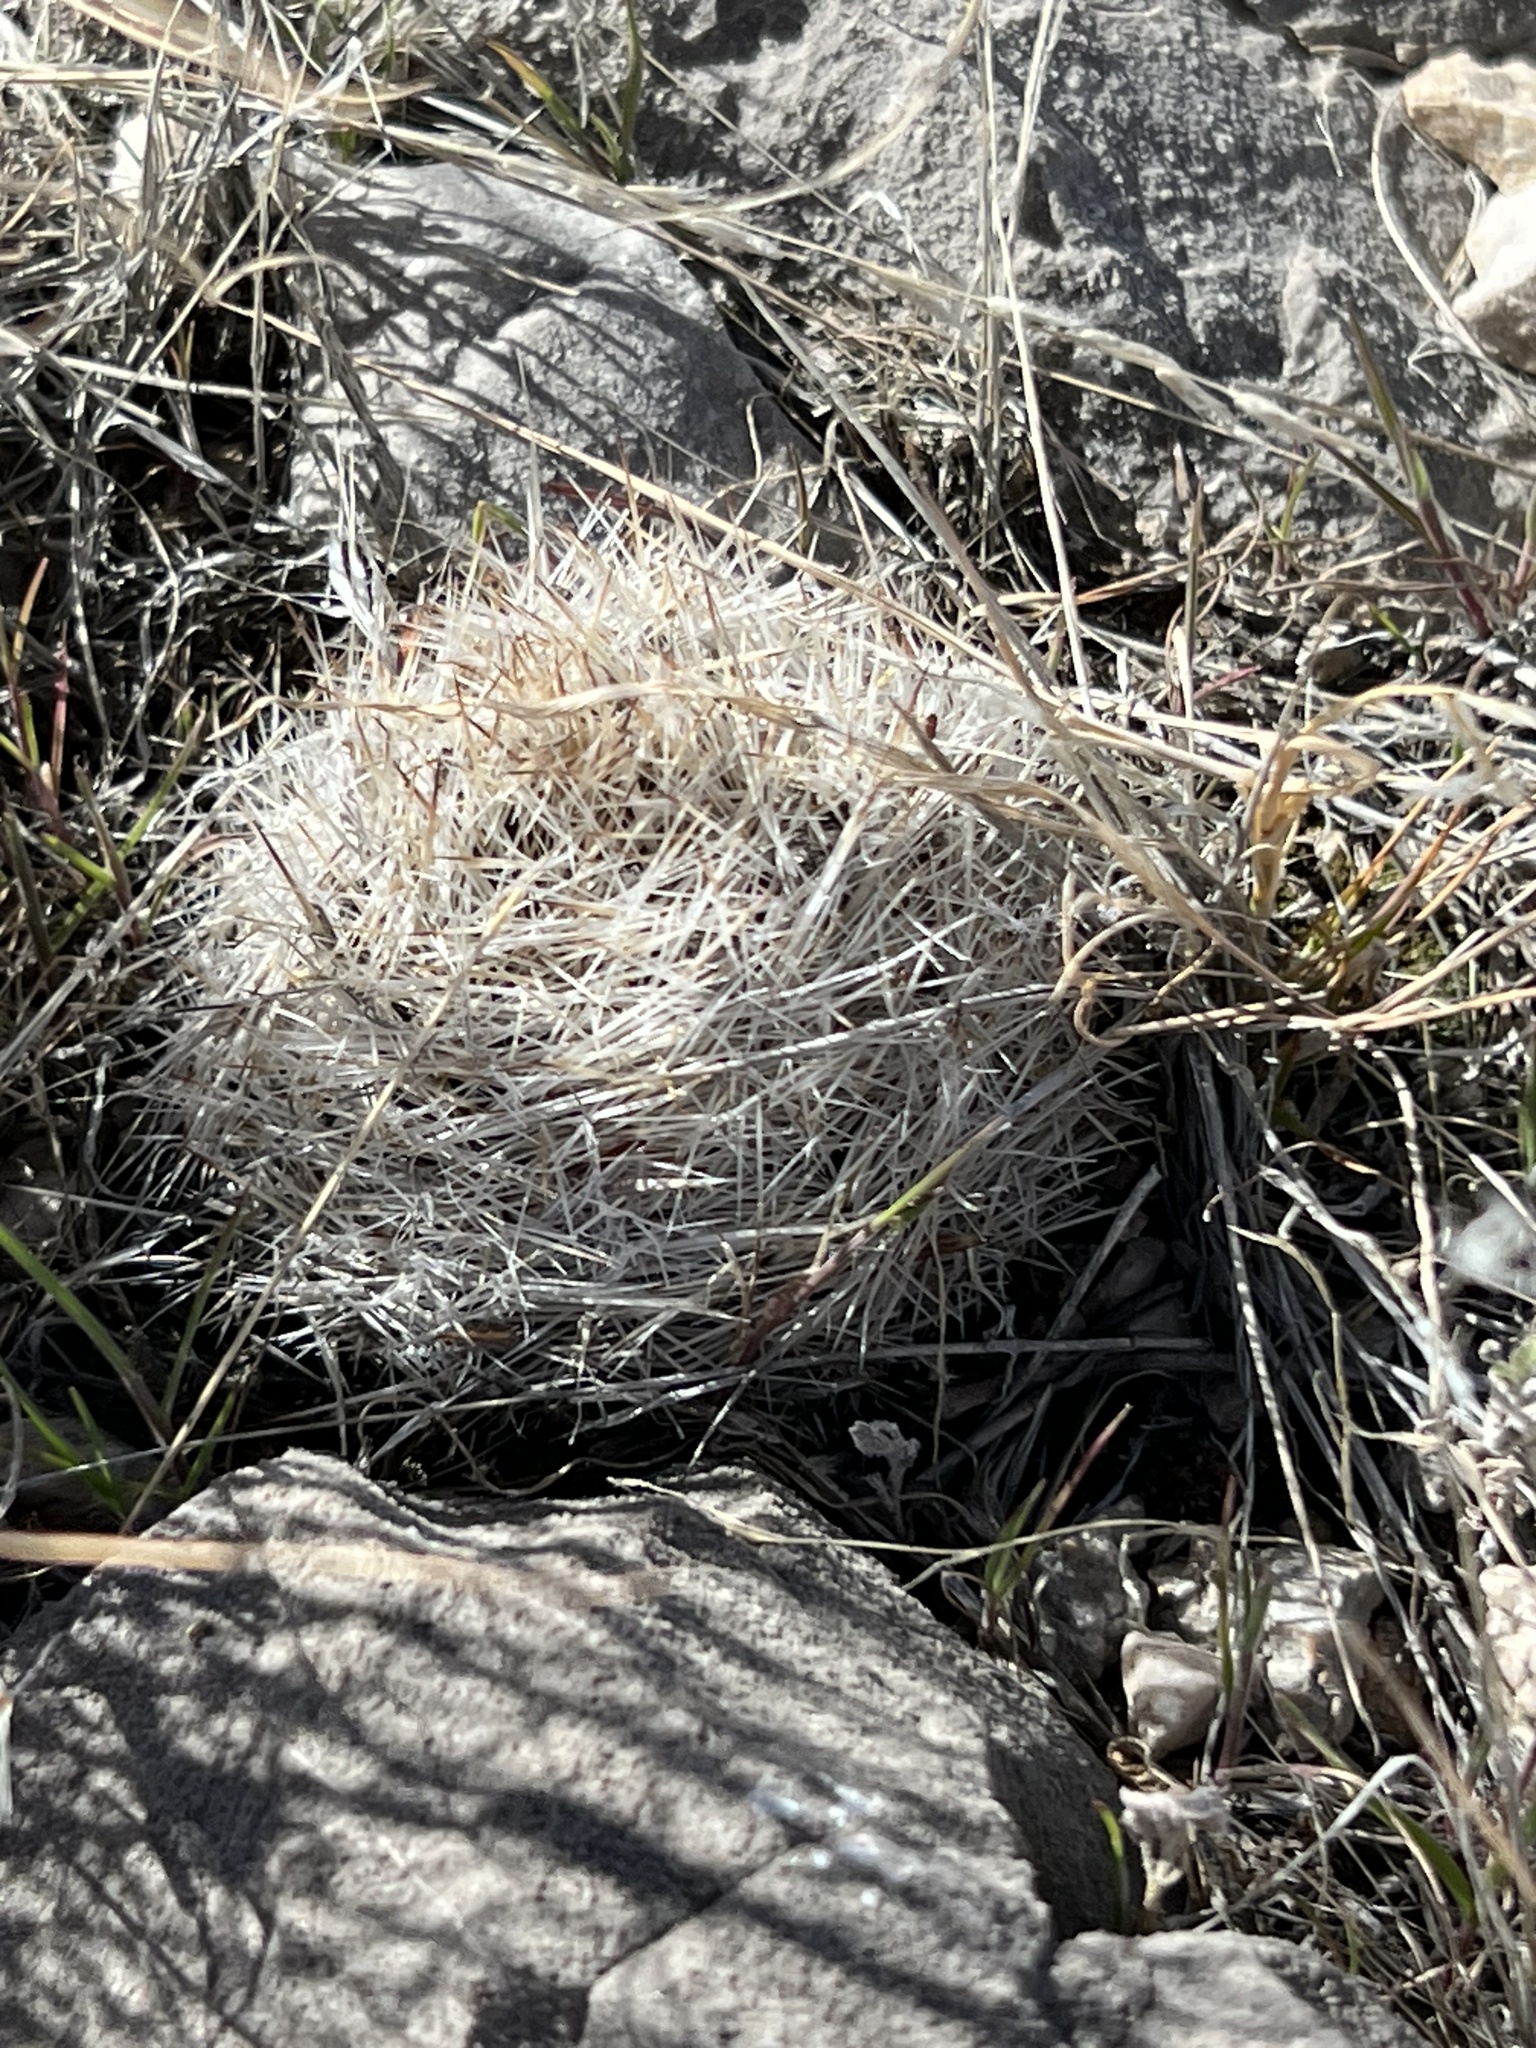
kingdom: Plantae
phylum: Tracheophyta
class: Magnoliopsida
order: Caryophyllales
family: Cactaceae
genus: Pelecyphora
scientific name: Pelecyphora dasyacantha
